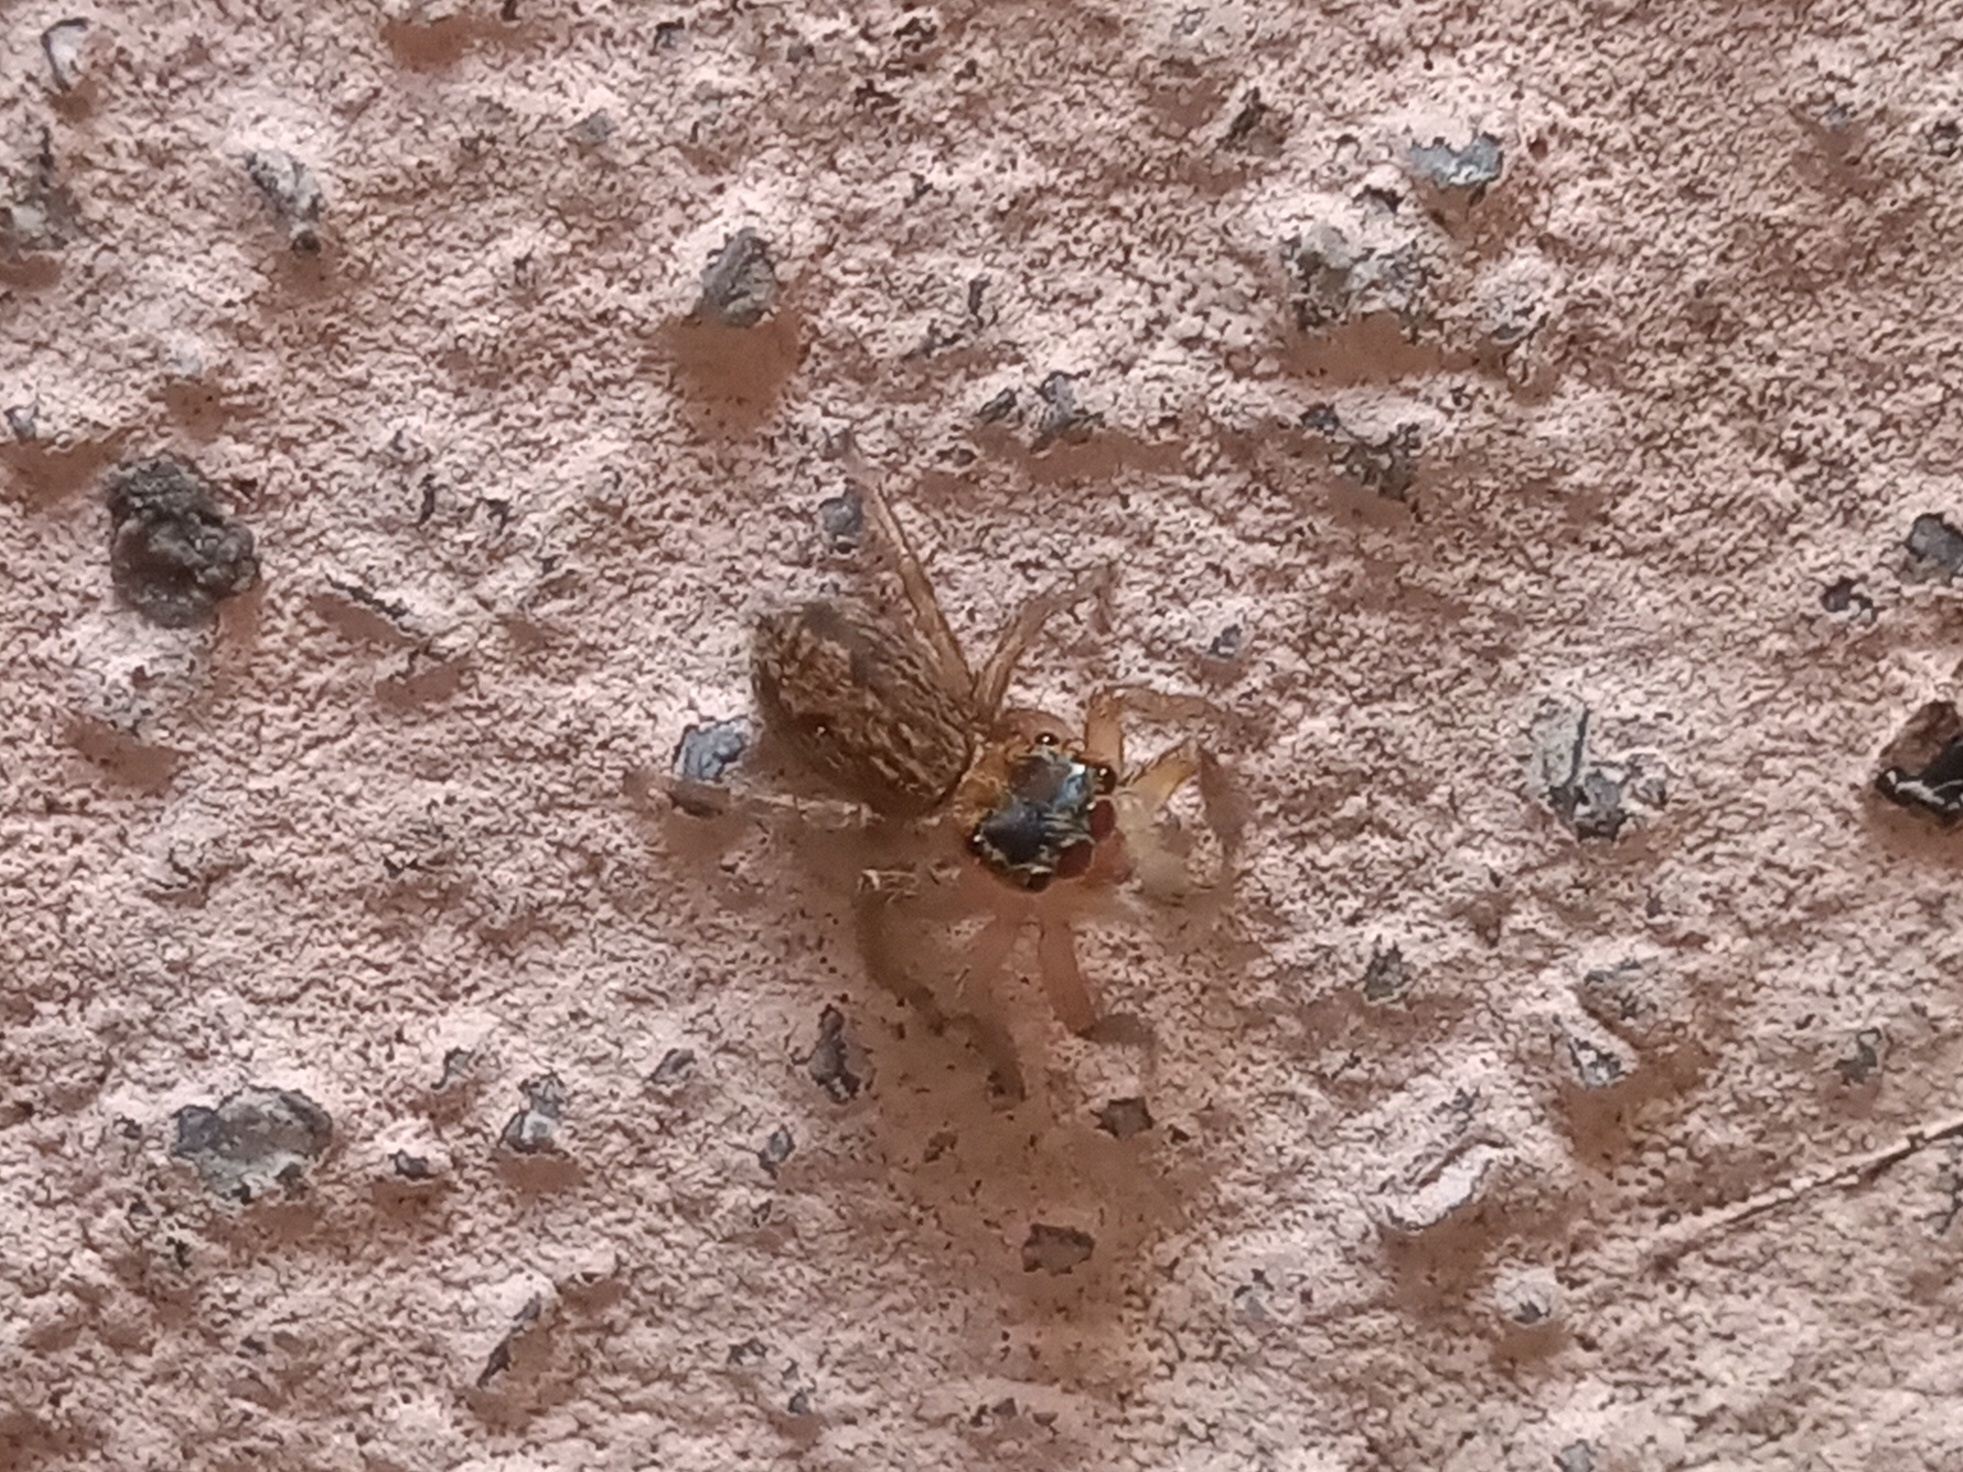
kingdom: Animalia
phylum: Arthropoda
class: Arachnida
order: Araneae
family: Salticidae
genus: Hasarius
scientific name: Hasarius adansoni
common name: Jumping spider
